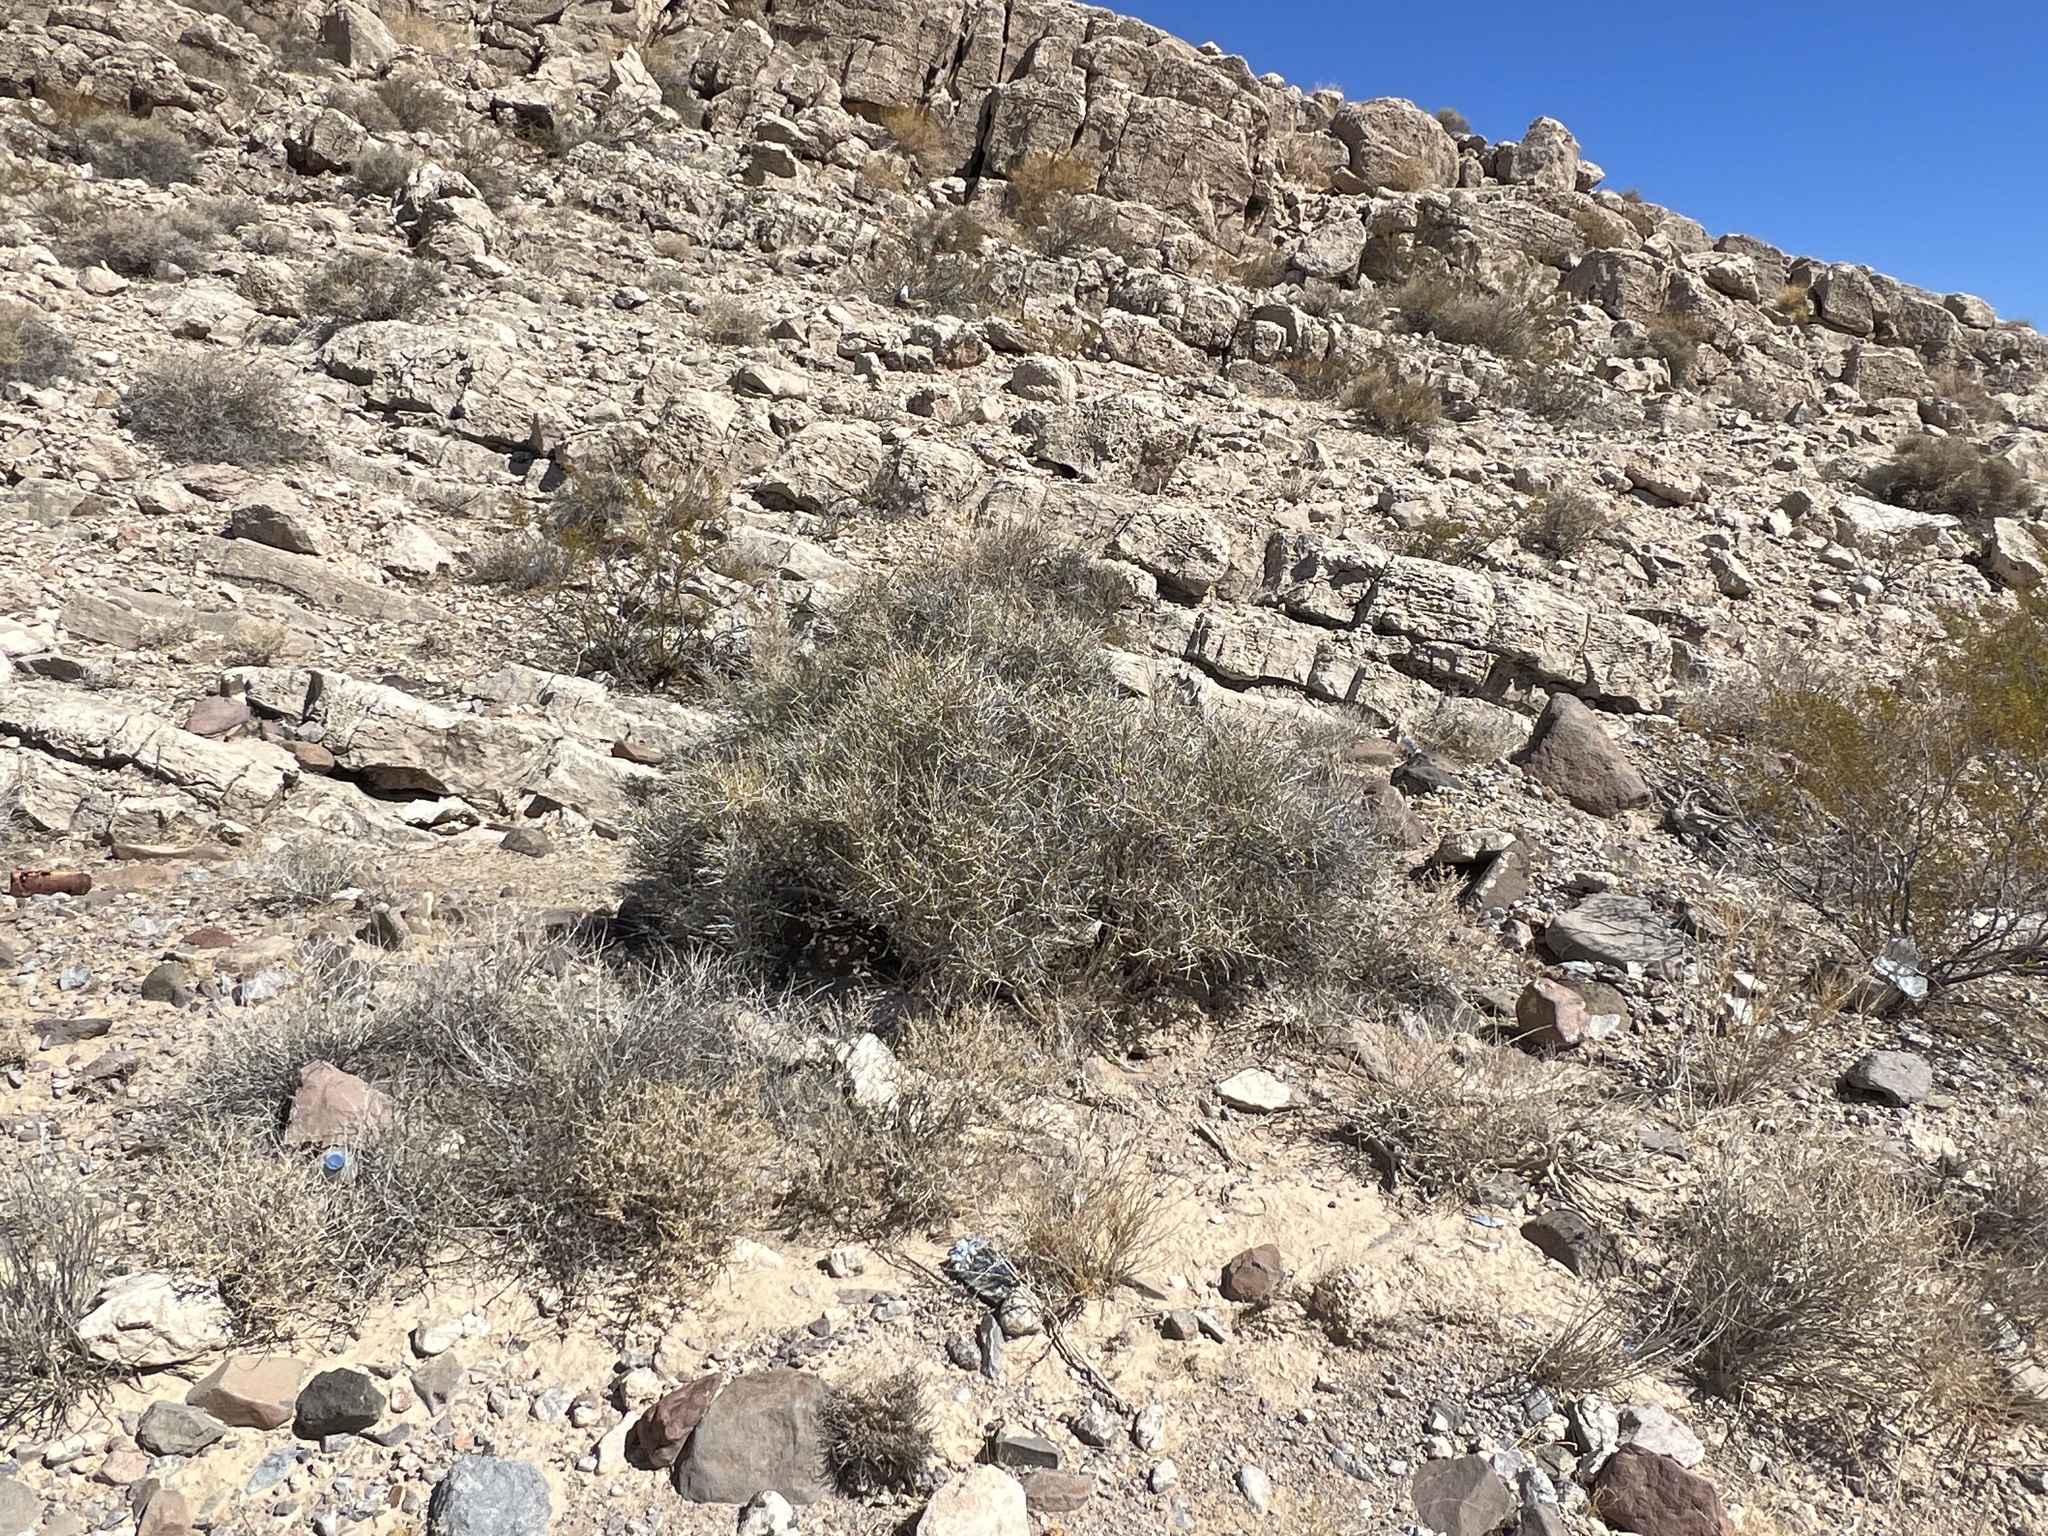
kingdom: Plantae
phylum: Tracheophyta
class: Gnetopsida
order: Ephedrales
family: Ephedraceae
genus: Ephedra
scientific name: Ephedra nevadensis
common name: Gray ephedra
